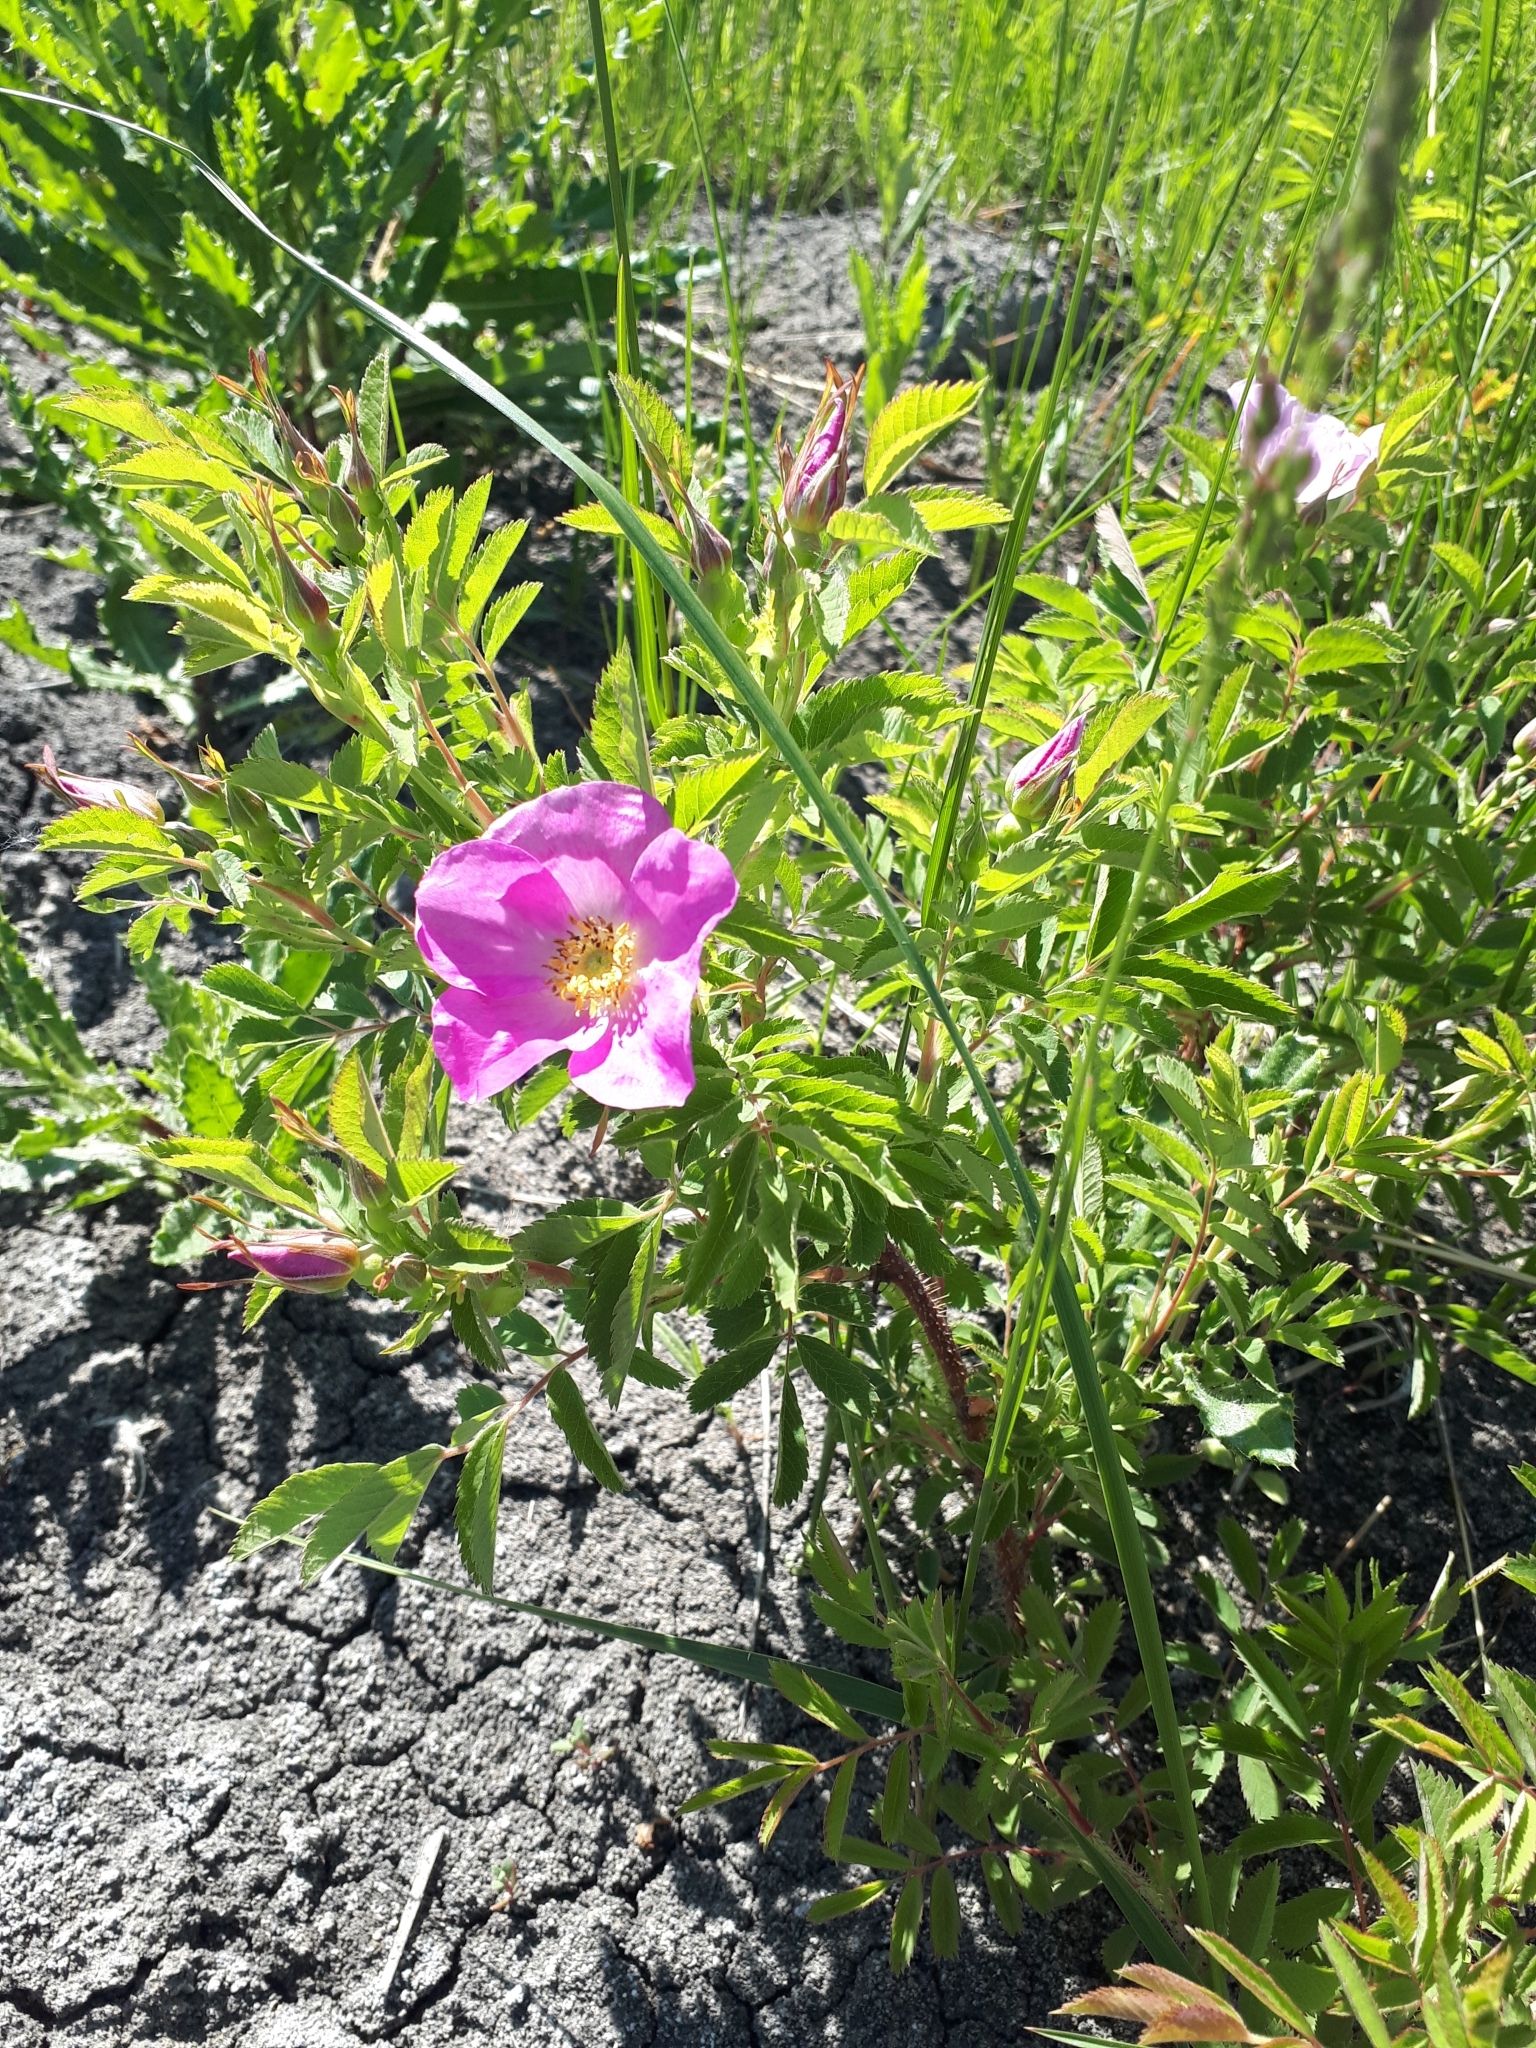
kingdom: Plantae
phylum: Tracheophyta
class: Magnoliopsida
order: Rosales
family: Rosaceae
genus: Rosa
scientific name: Rosa arkansana
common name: Prairie rose
